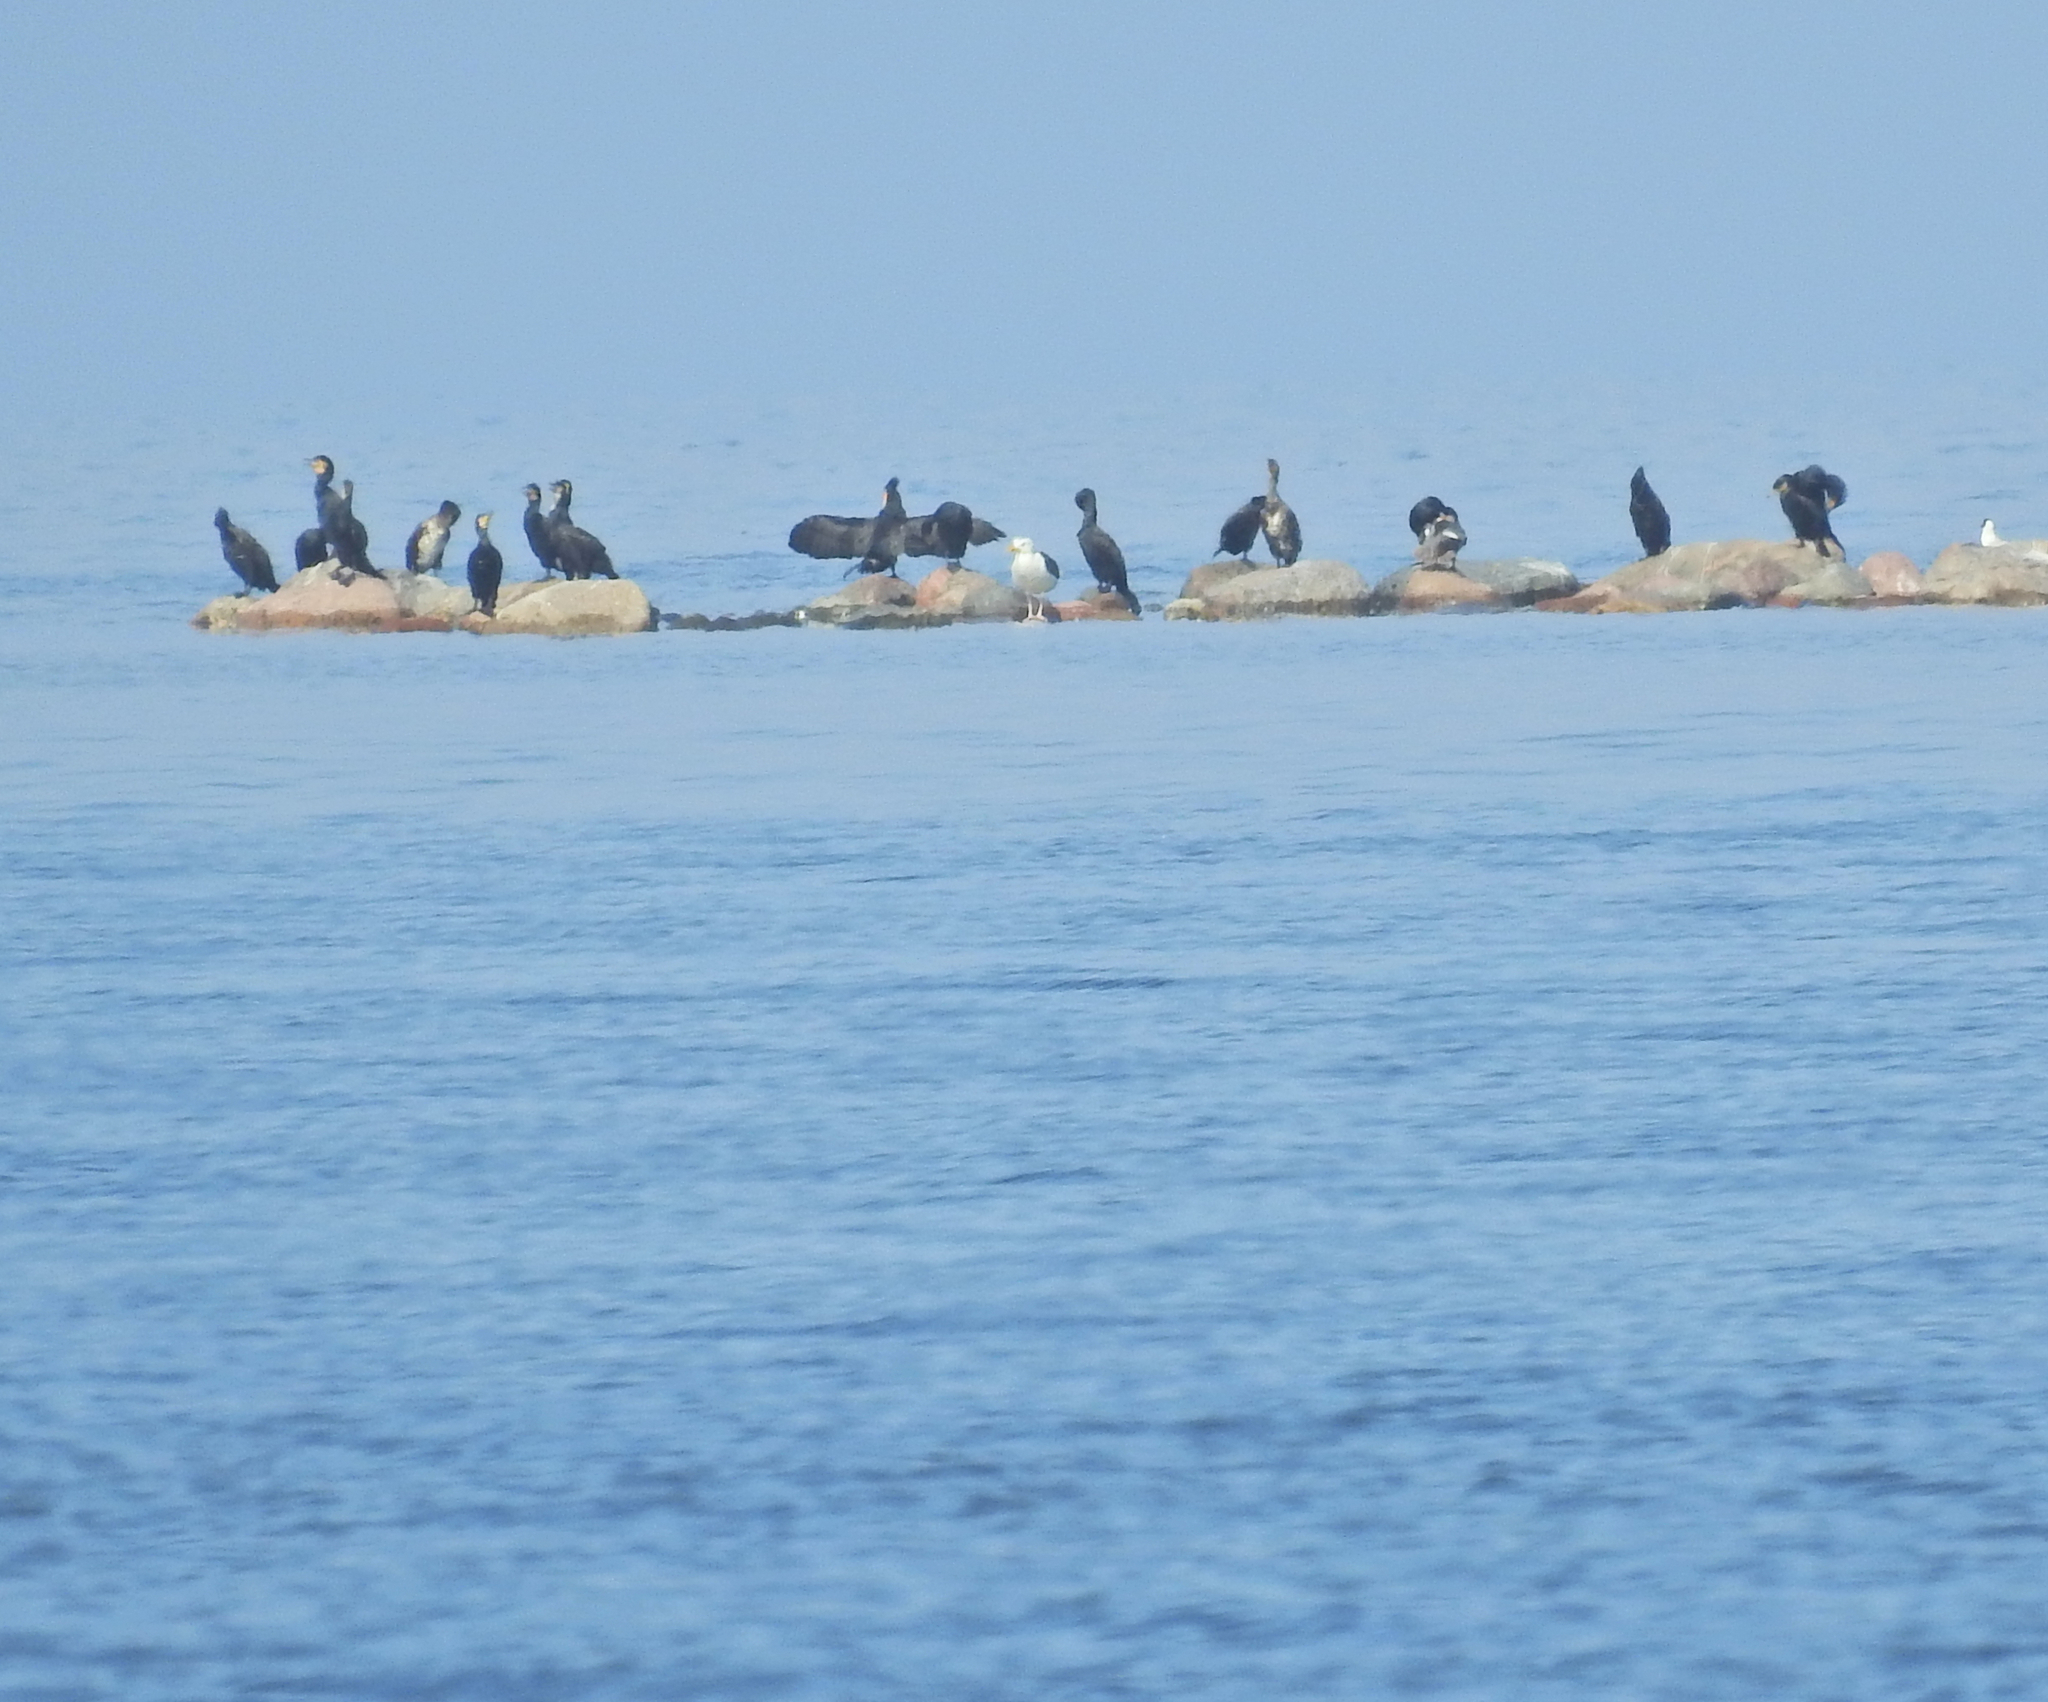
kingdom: Animalia
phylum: Chordata
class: Aves
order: Suliformes
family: Phalacrocoracidae
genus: Phalacrocorax
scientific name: Phalacrocorax carbo
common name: Great cormorant
